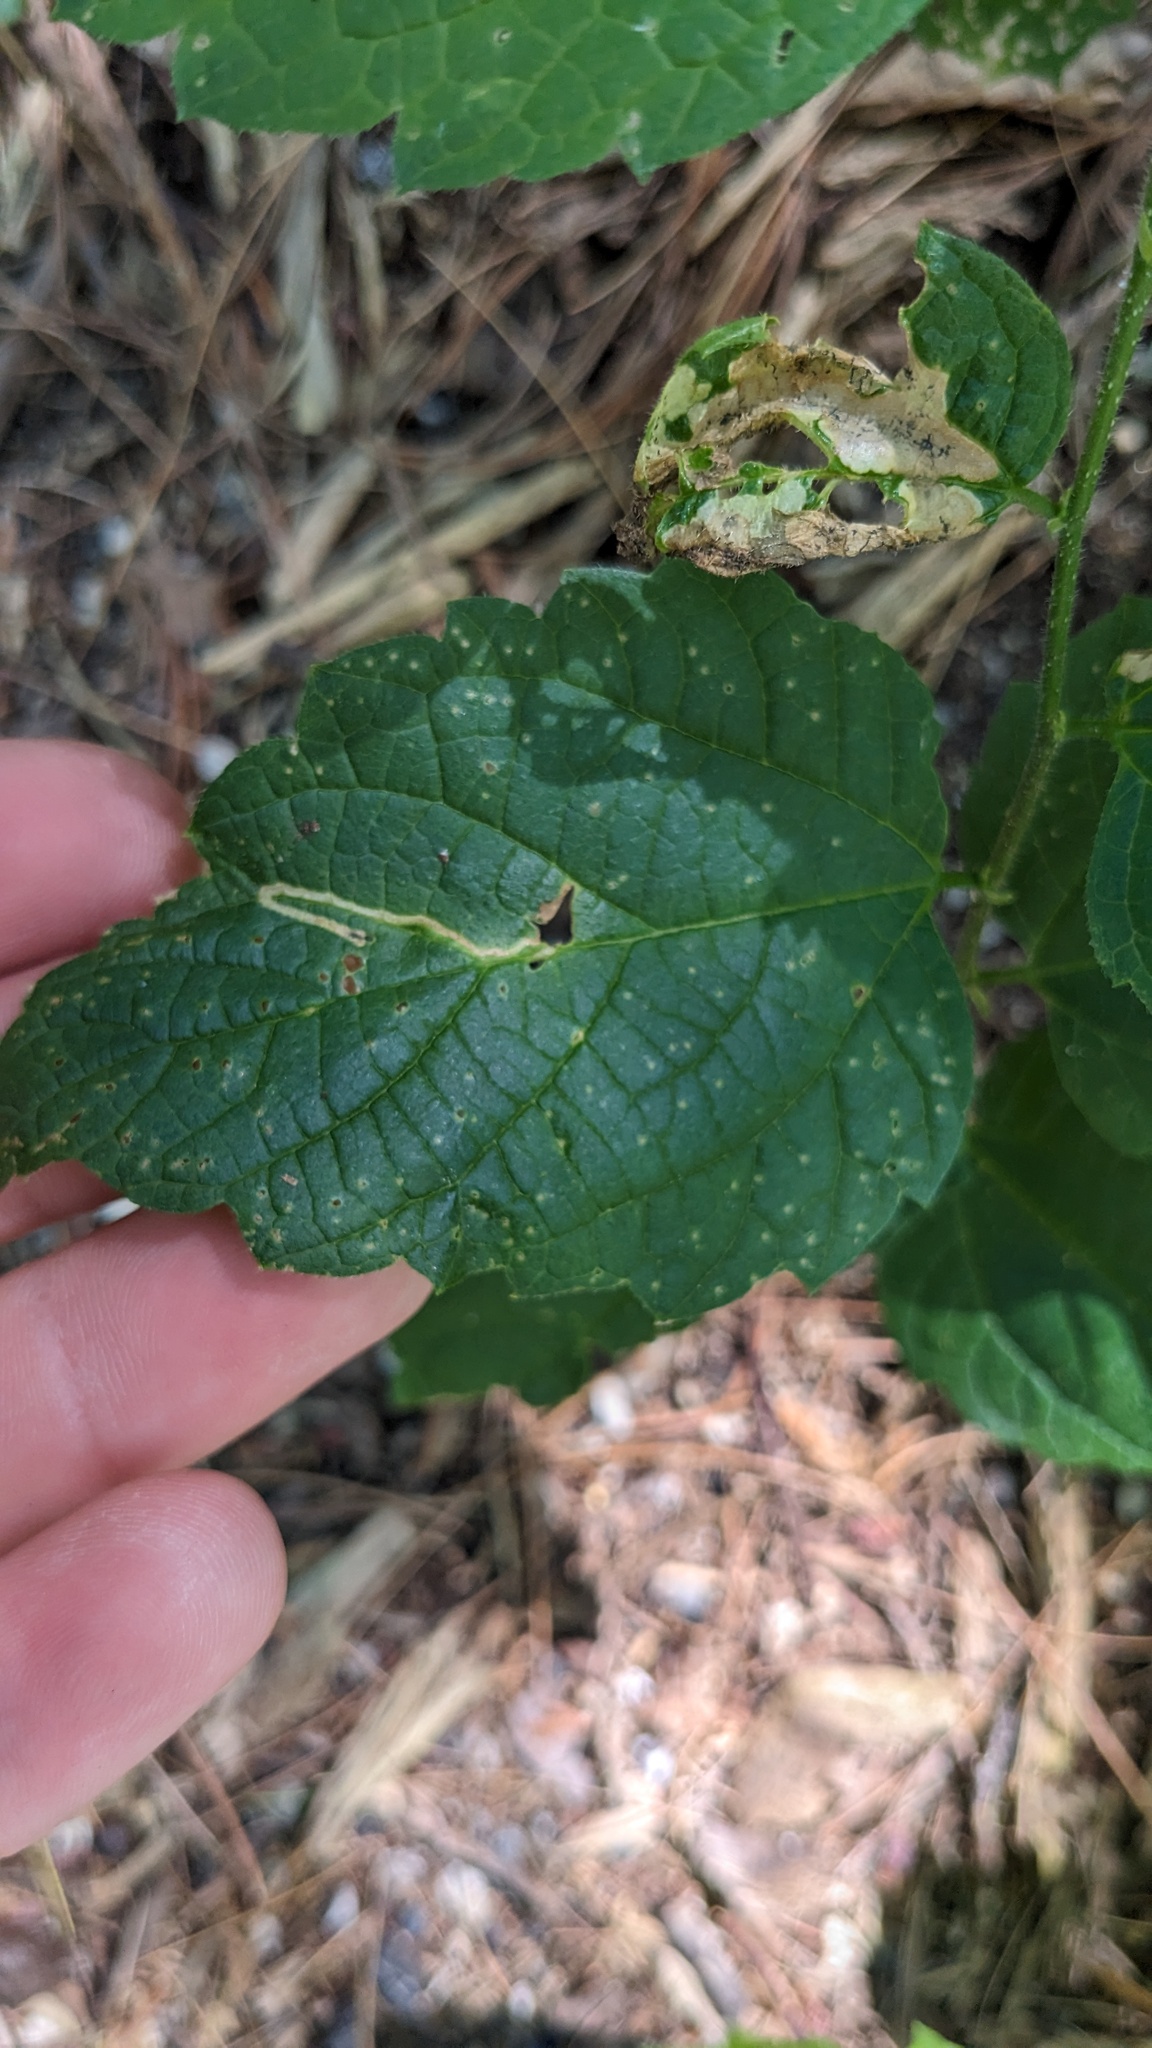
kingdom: Plantae
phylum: Tracheophyta
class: Magnoliopsida
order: Rosales
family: Cannabaceae
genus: Celtis
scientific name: Celtis occidentalis
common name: Common hackberry
